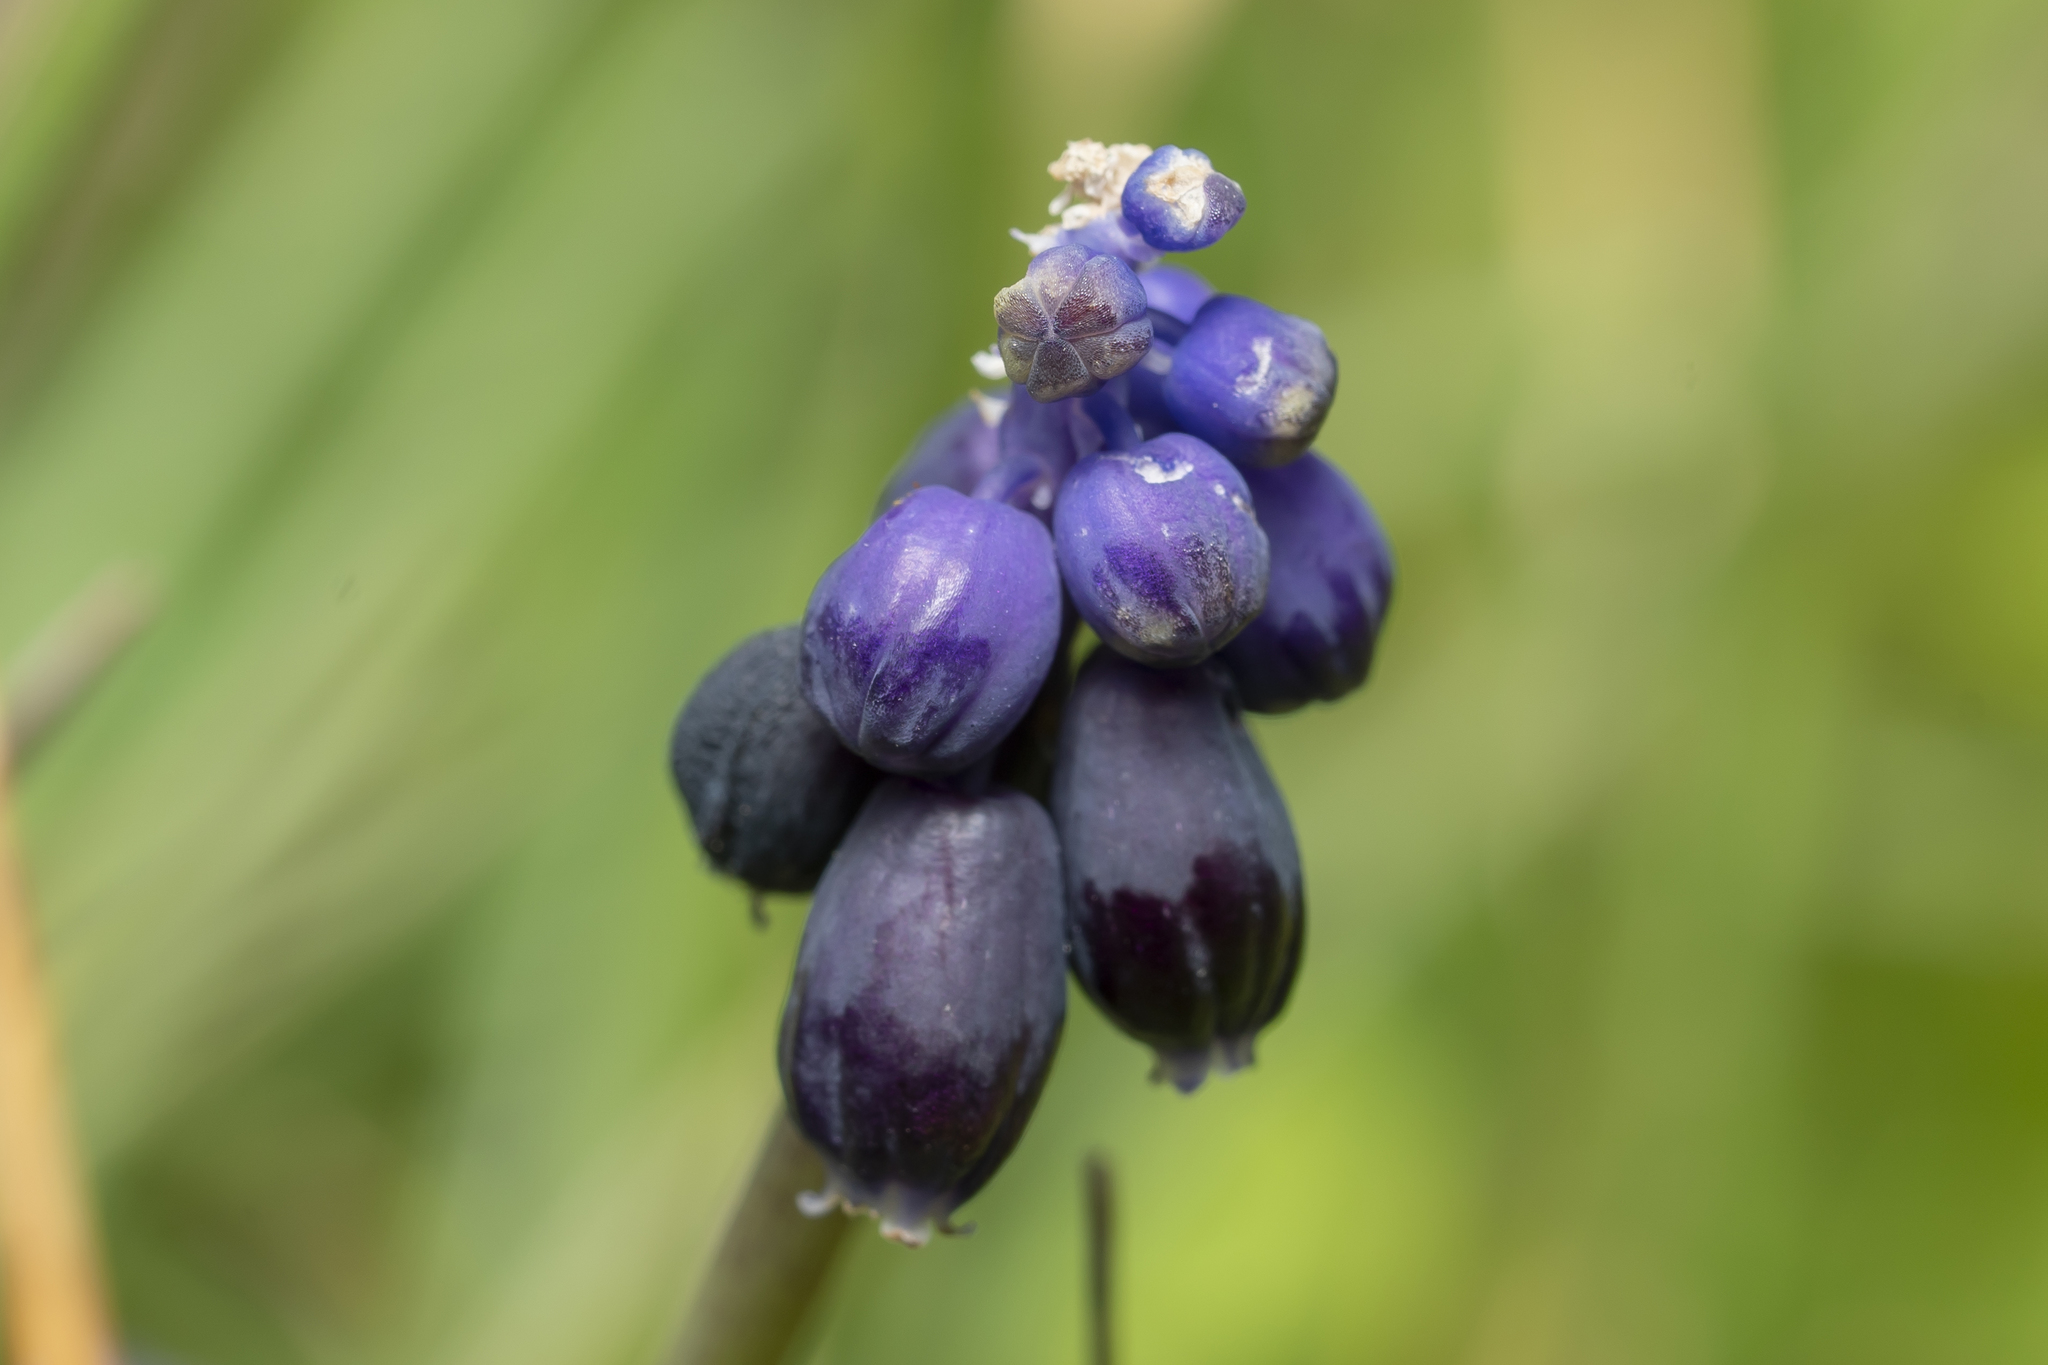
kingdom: Plantae
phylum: Tracheophyta
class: Liliopsida
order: Asparagales
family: Asparagaceae
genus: Muscari
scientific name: Muscari neglectum
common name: Grape-hyacinth
